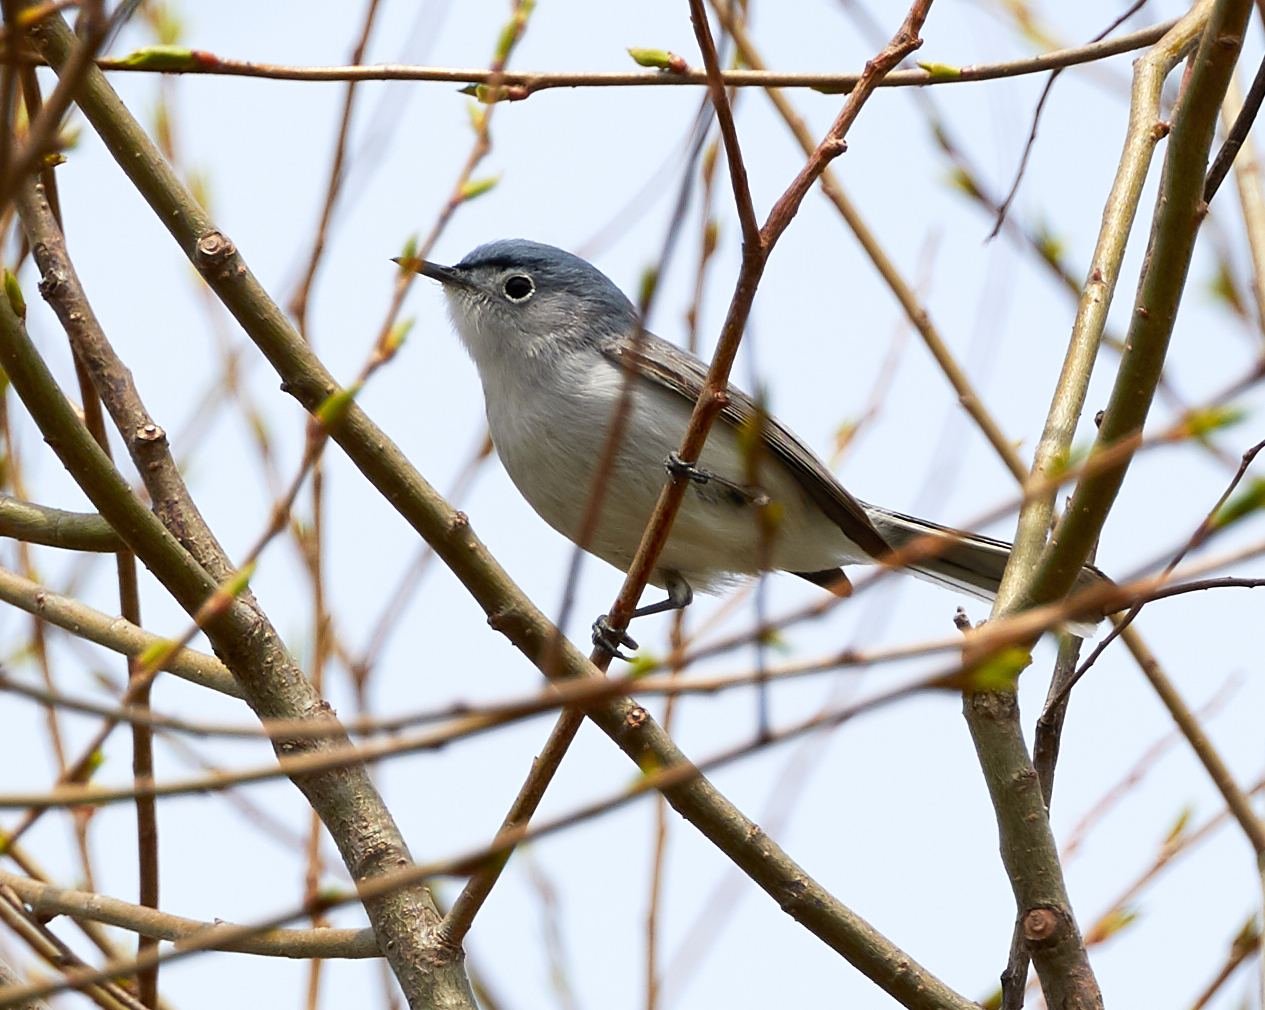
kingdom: Animalia
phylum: Chordata
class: Aves
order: Passeriformes
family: Polioptilidae
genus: Polioptila
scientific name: Polioptila caerulea
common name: Blue-gray gnatcatcher
